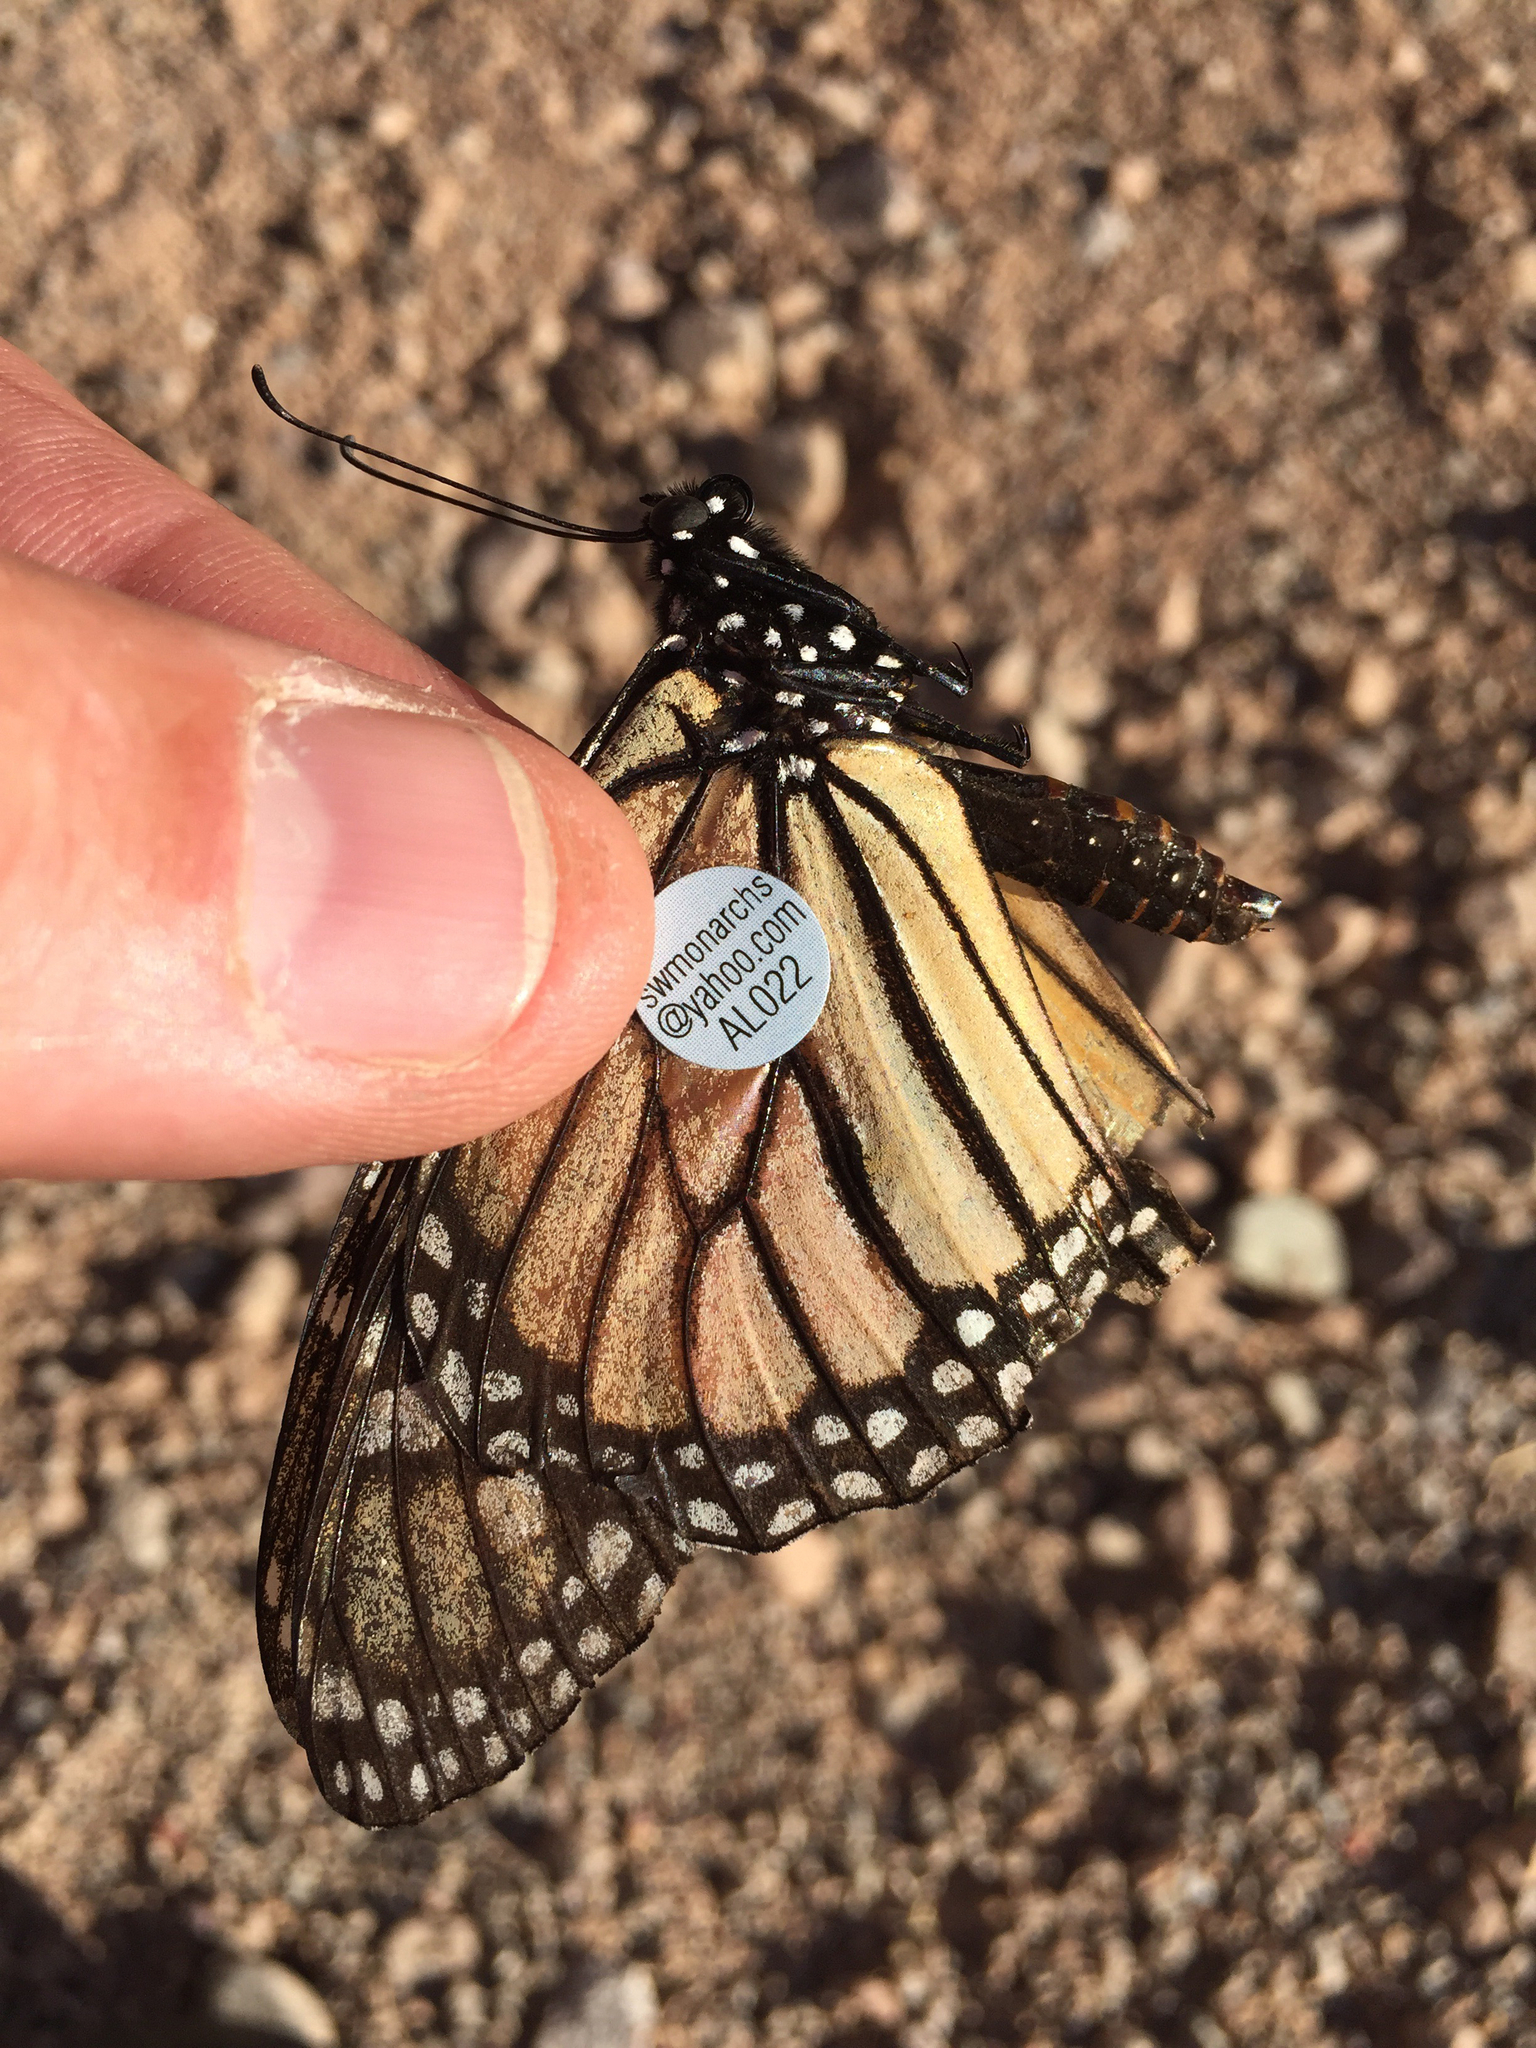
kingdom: Animalia
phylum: Arthropoda
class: Insecta
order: Lepidoptera
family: Nymphalidae
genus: Danaus
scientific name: Danaus plexippus
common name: Monarch
